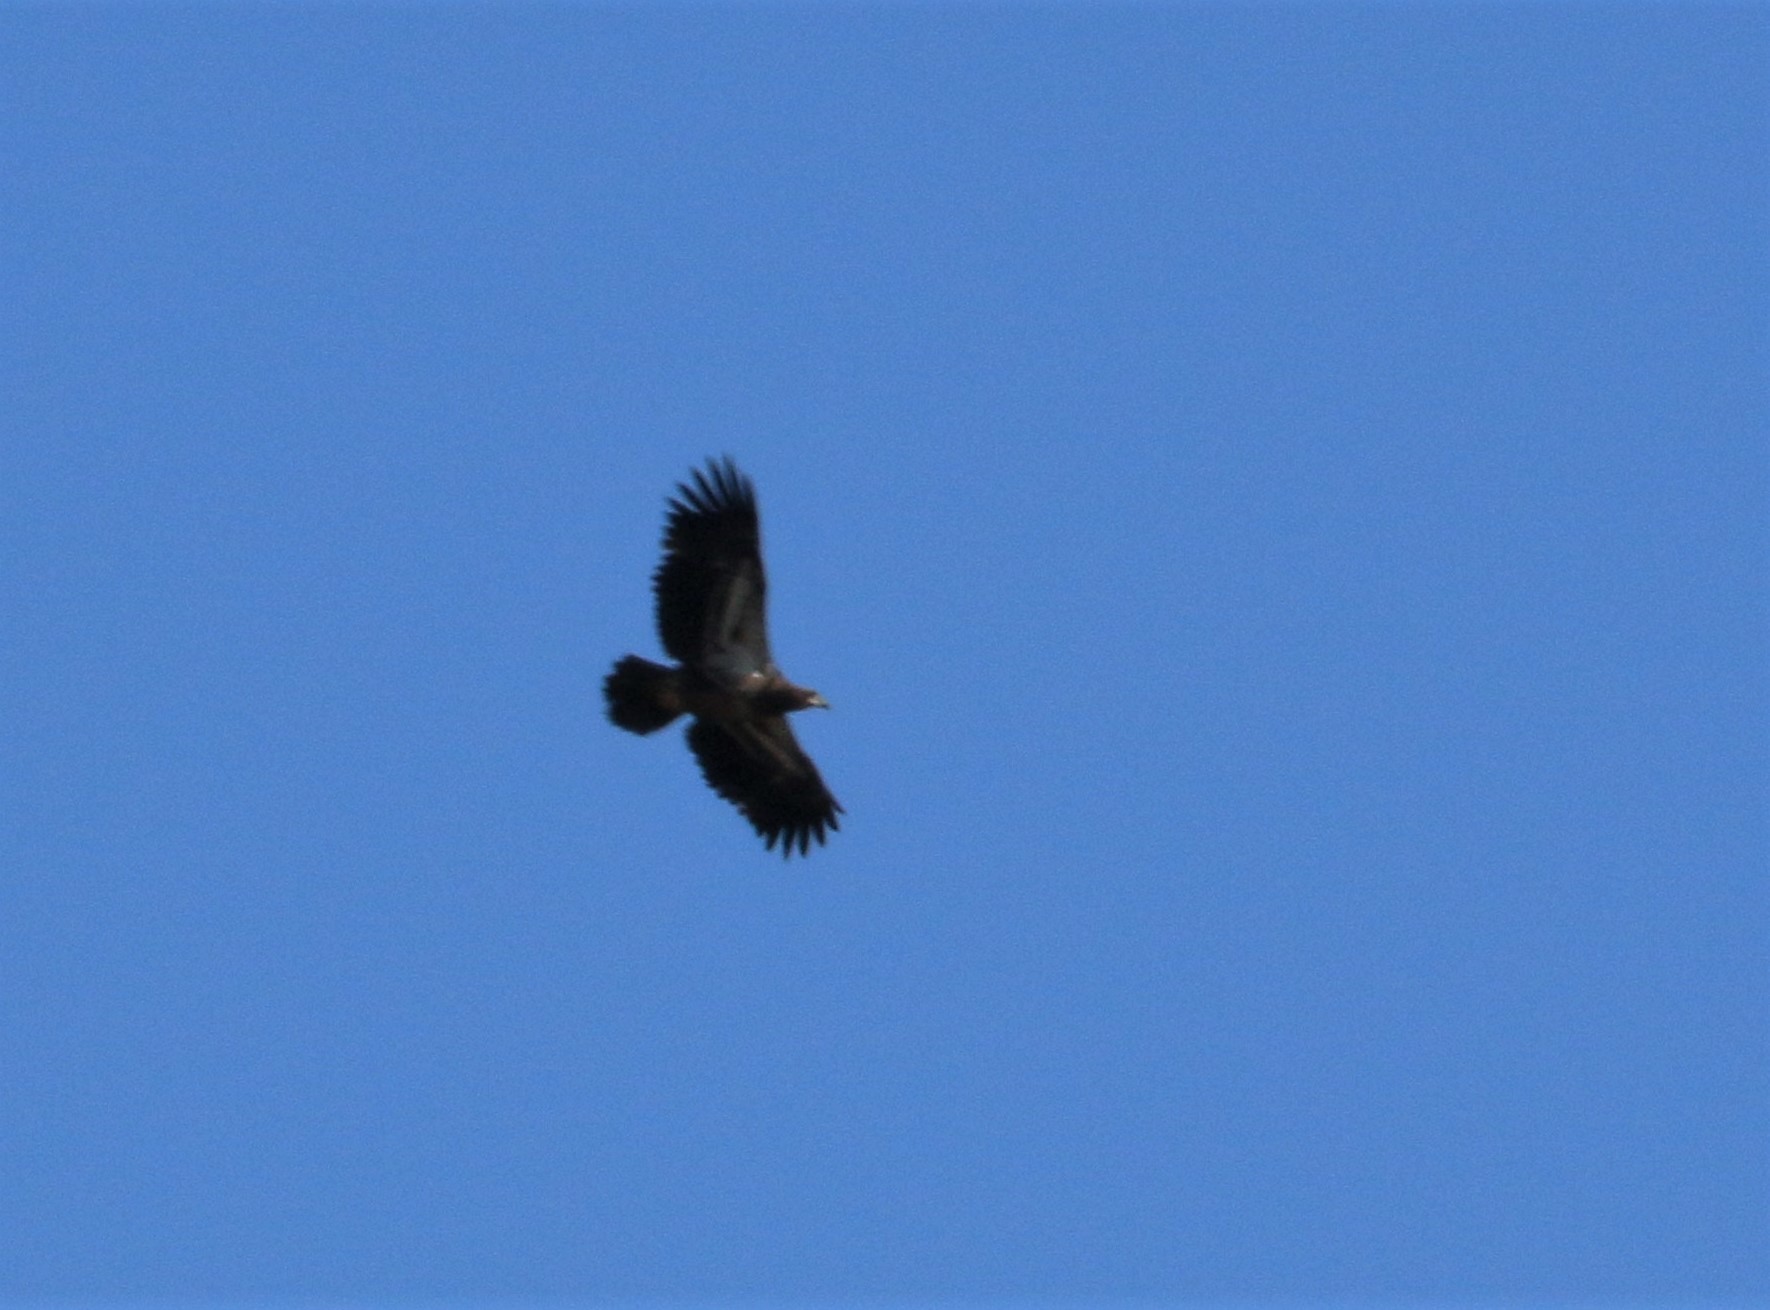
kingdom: Animalia
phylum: Chordata
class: Aves
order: Accipitriformes
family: Accipitridae
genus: Haliaeetus
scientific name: Haliaeetus leucocephalus
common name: Bald eagle
